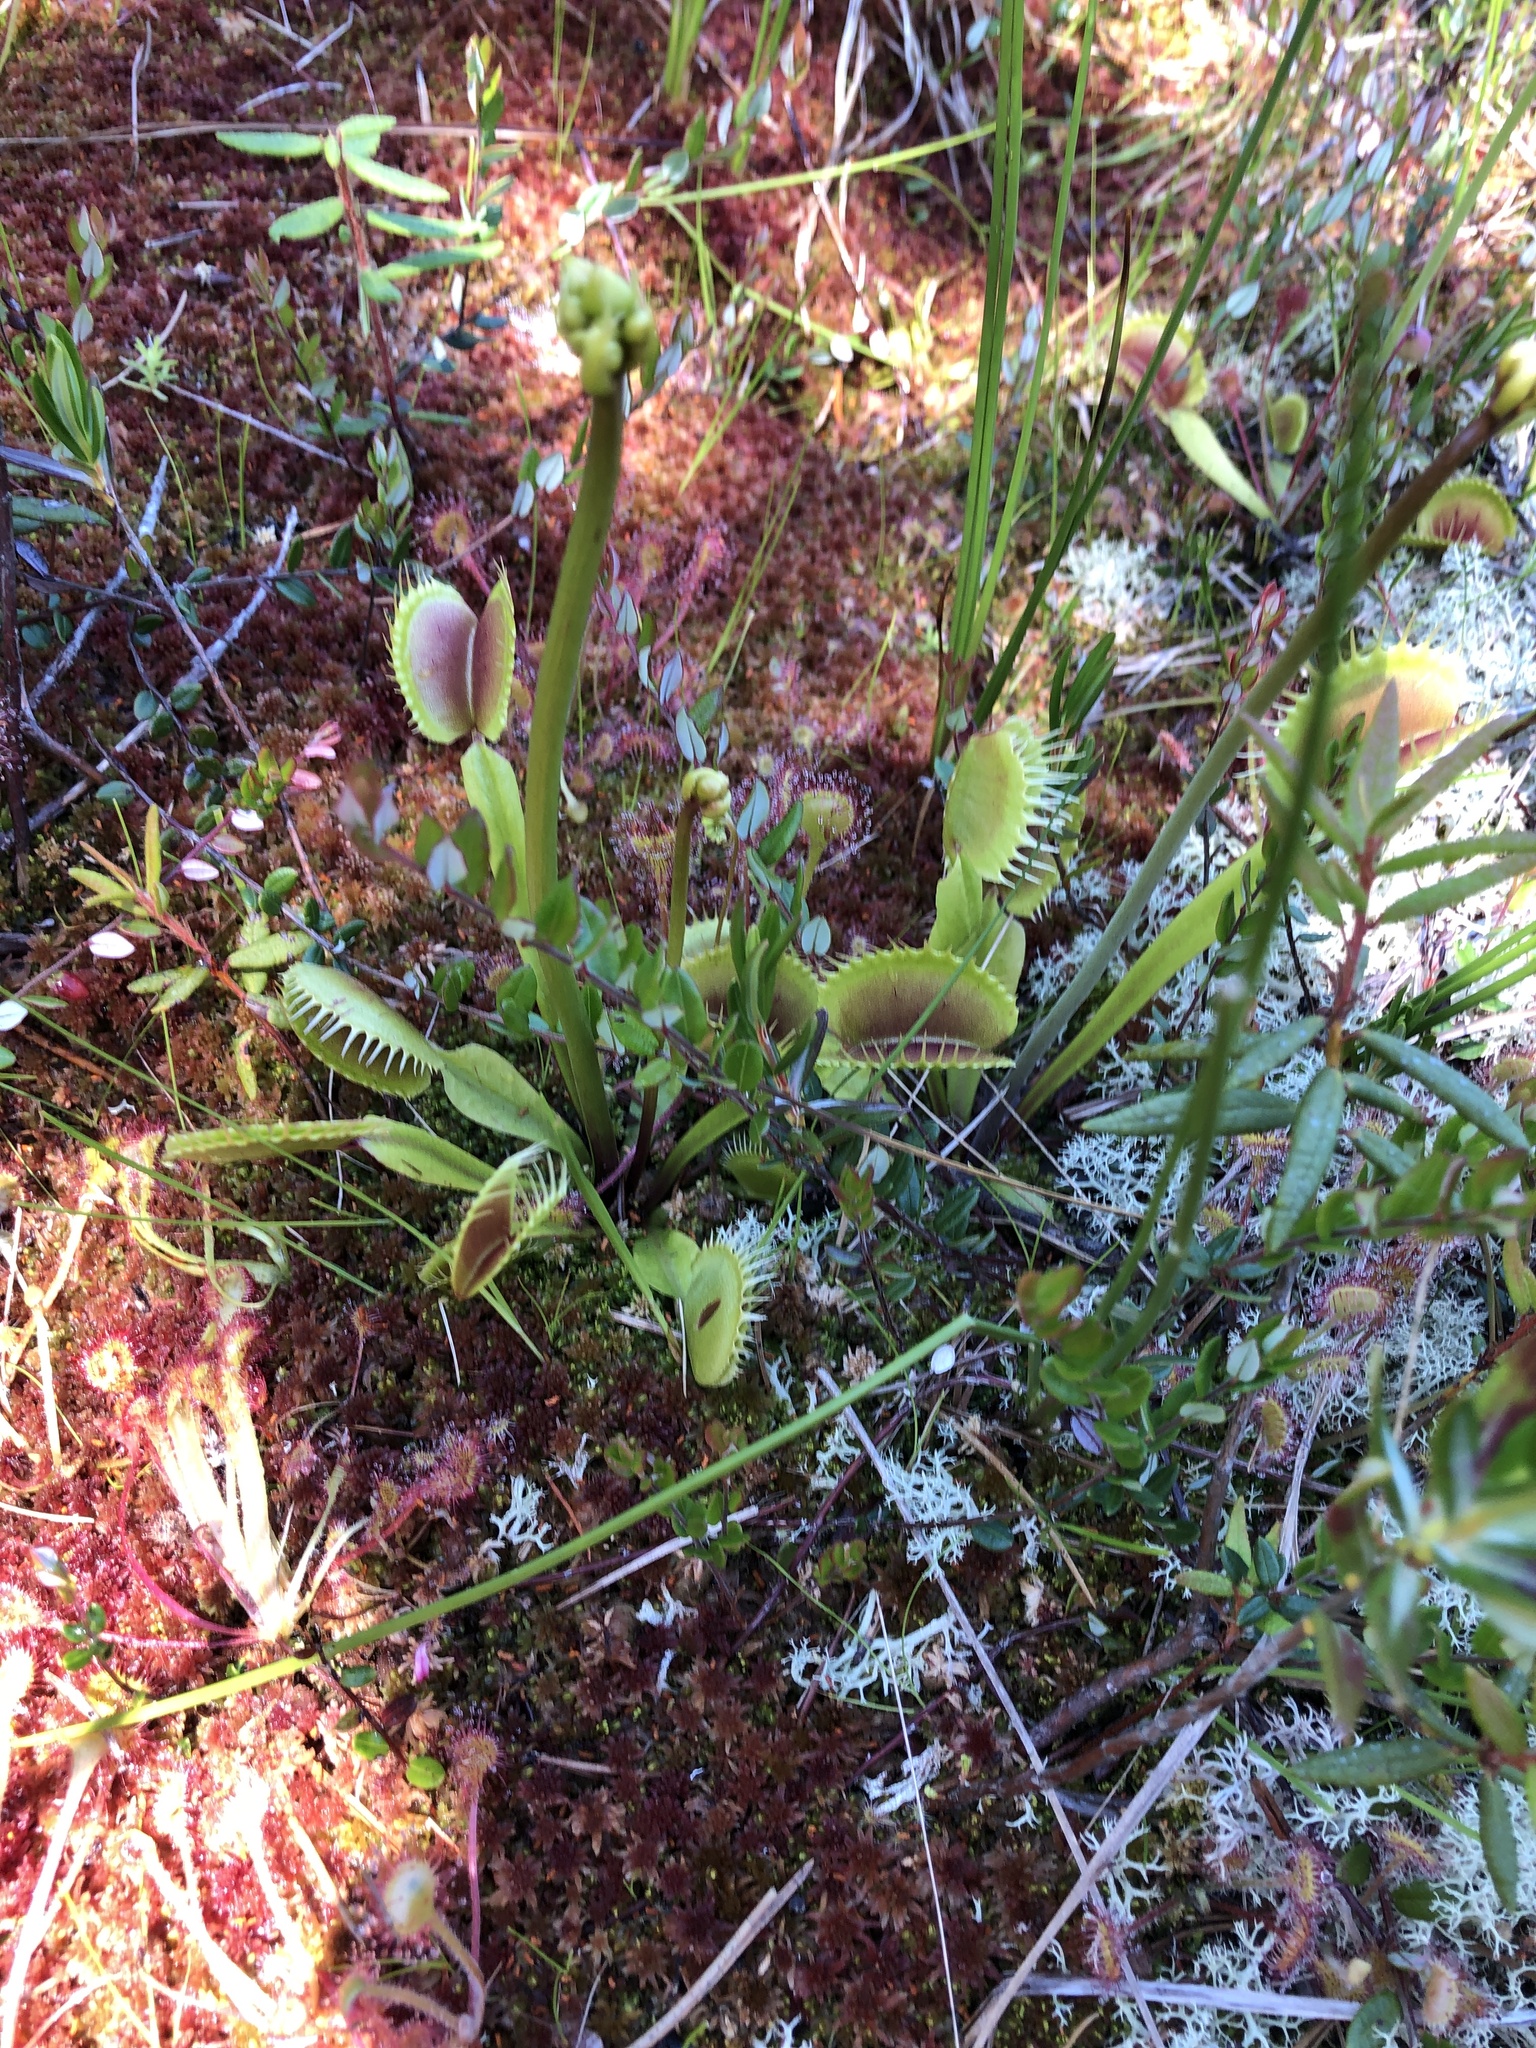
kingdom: Plantae
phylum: Tracheophyta
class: Magnoliopsida
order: Caryophyllales
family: Droseraceae
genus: Dionaea
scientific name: Dionaea muscipula
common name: Venus flytrap
